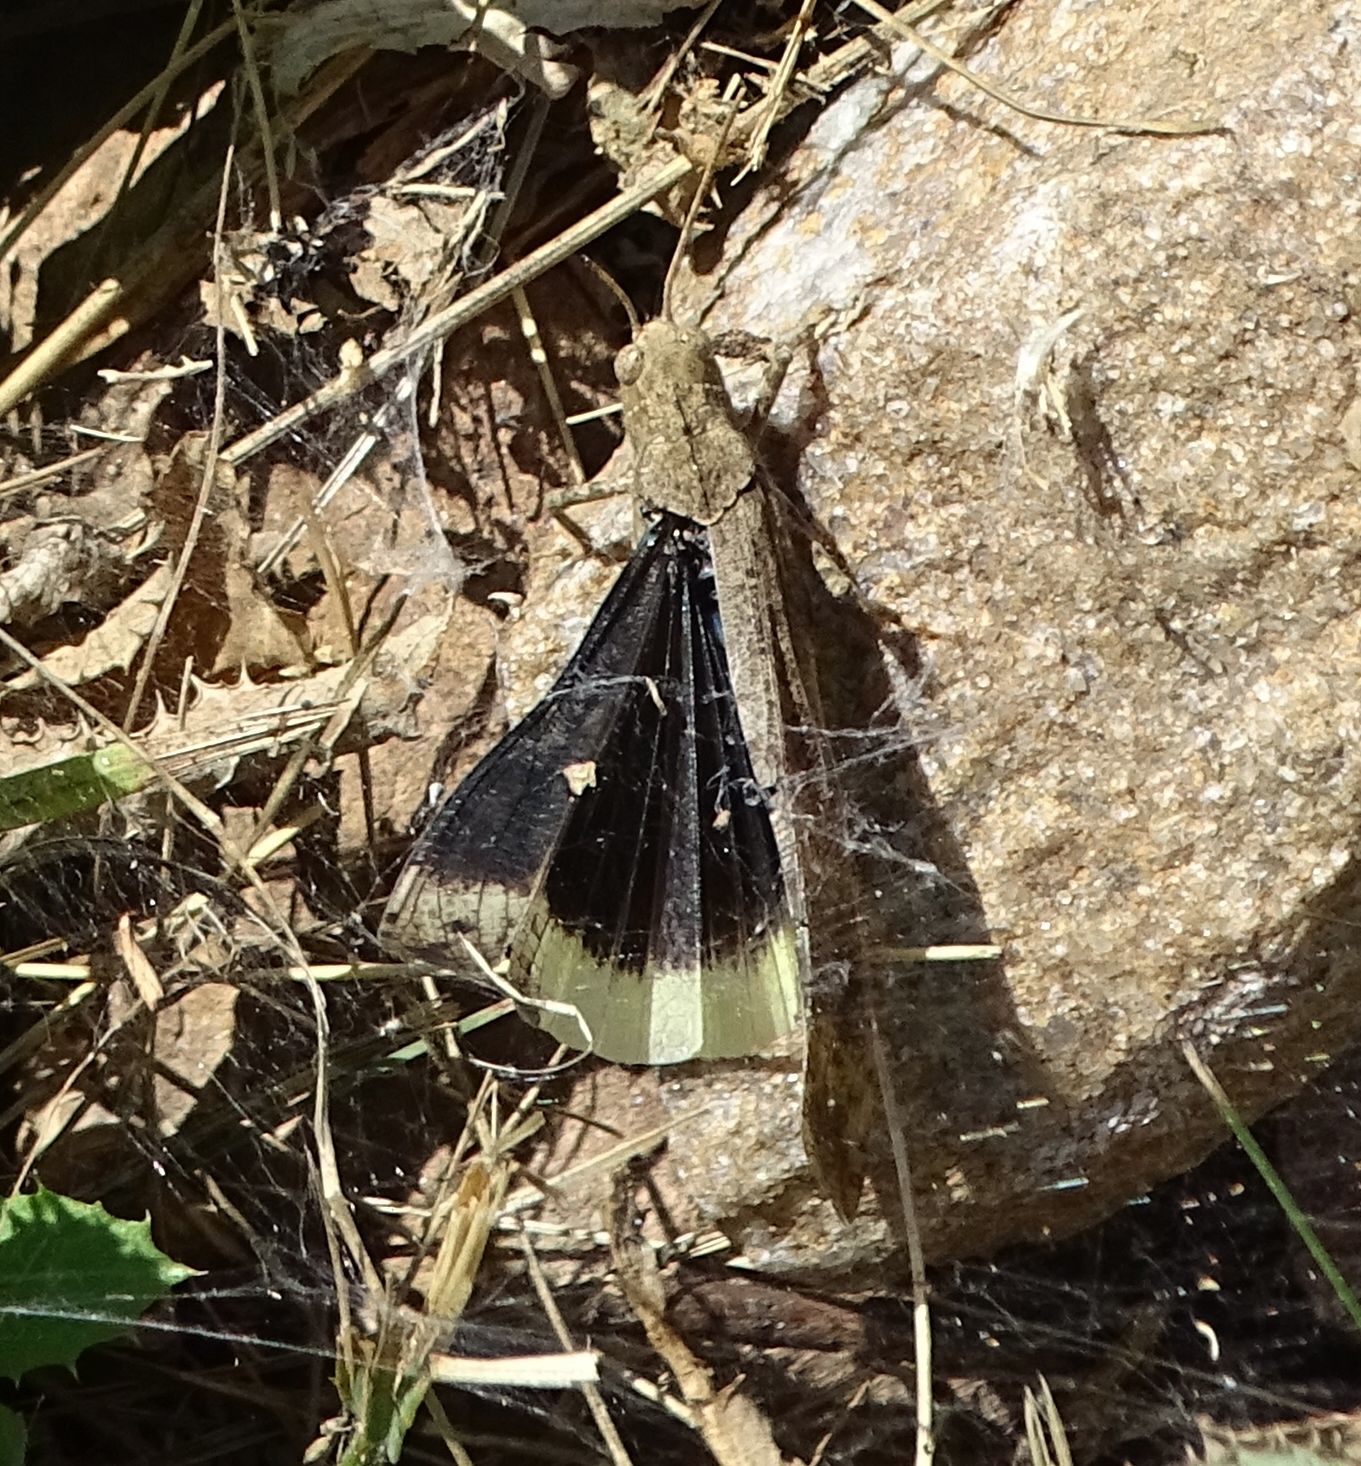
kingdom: Animalia
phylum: Arthropoda
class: Insecta
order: Orthoptera
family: Acrididae
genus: Dissosteira
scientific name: Dissosteira carolina
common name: Carolina grasshopper
